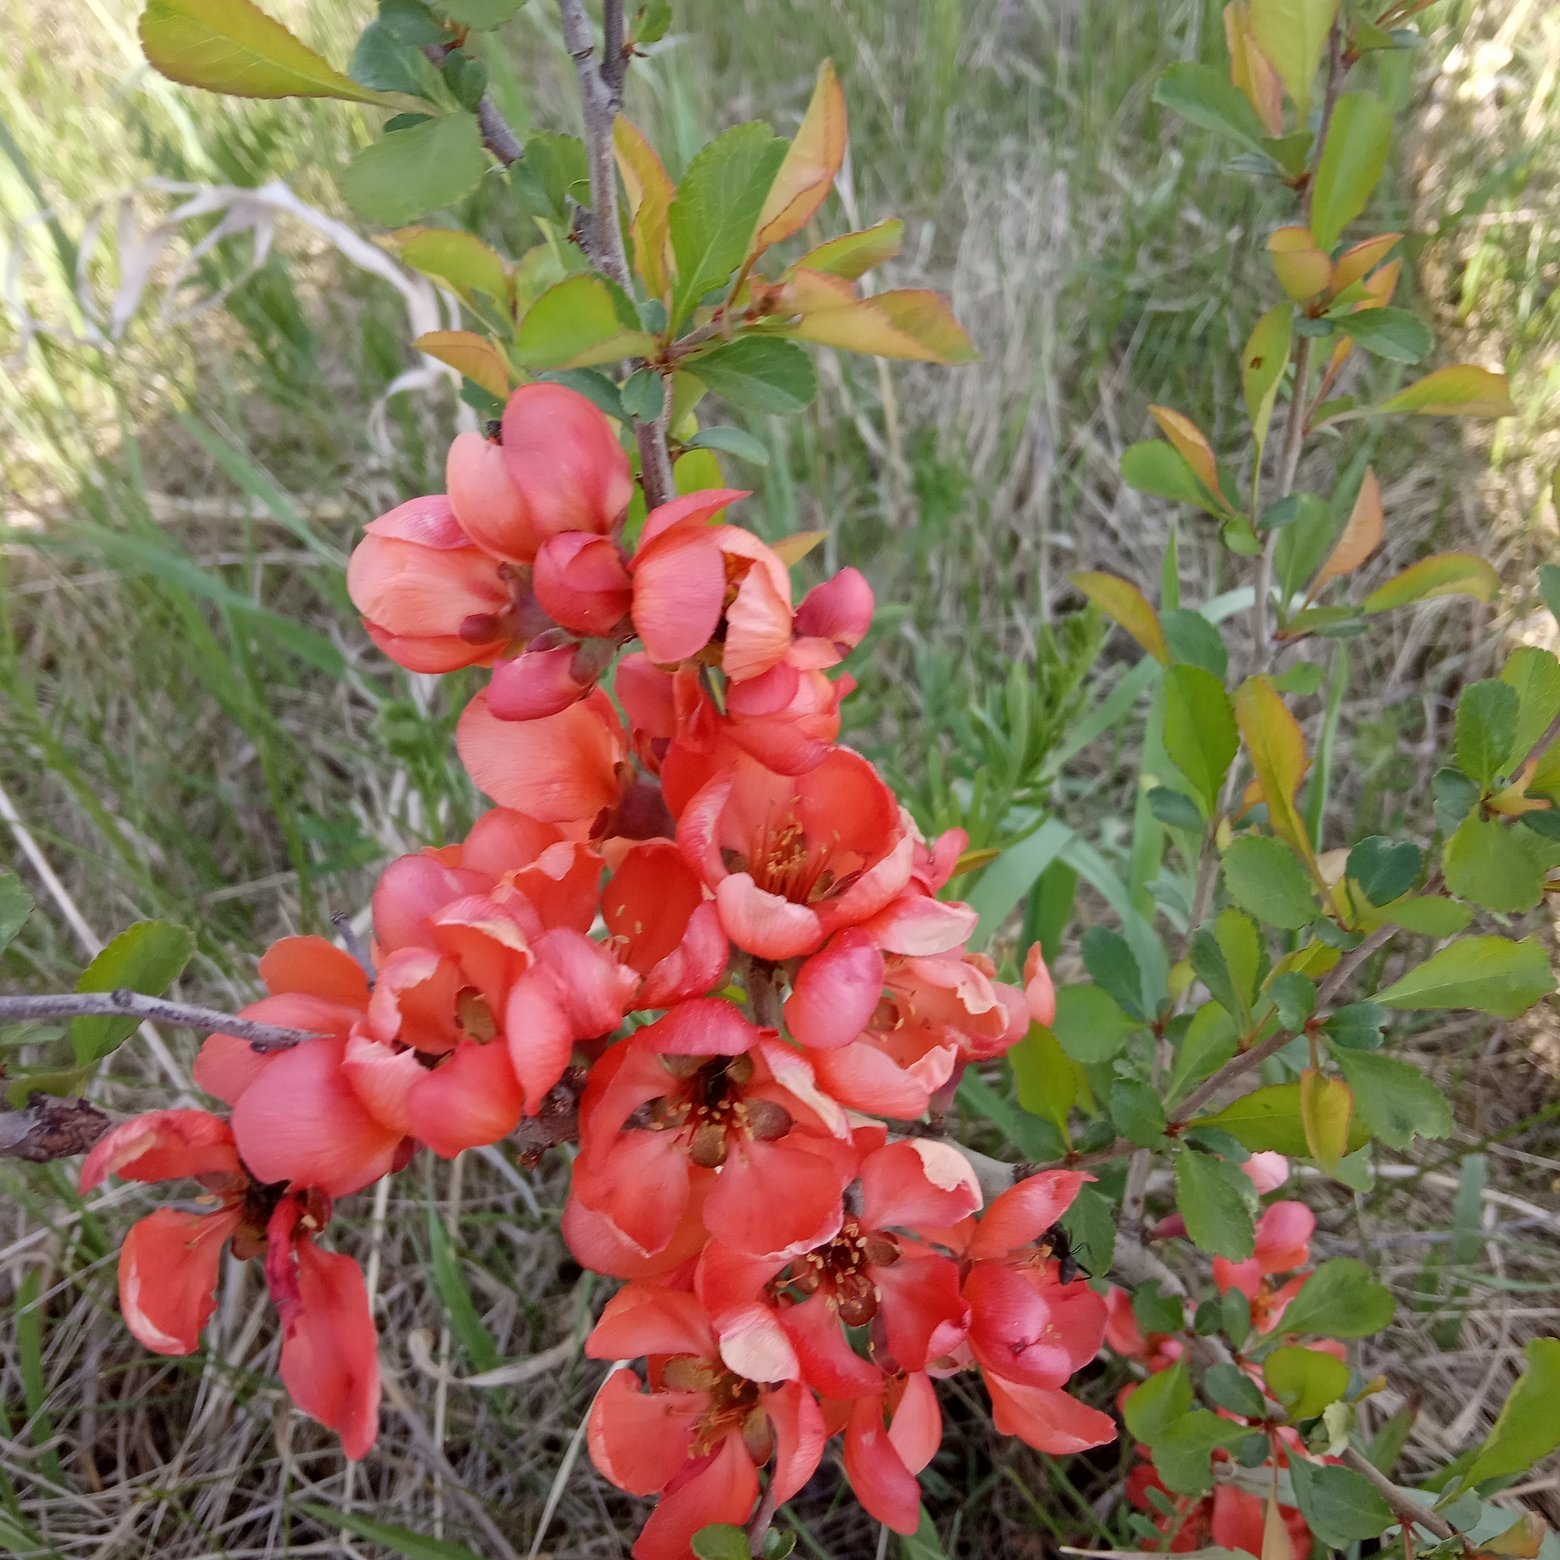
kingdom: Plantae
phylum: Tracheophyta
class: Magnoliopsida
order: Rosales
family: Rosaceae
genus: Chaenomeles
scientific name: Chaenomeles japonica
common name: Japanese quince
